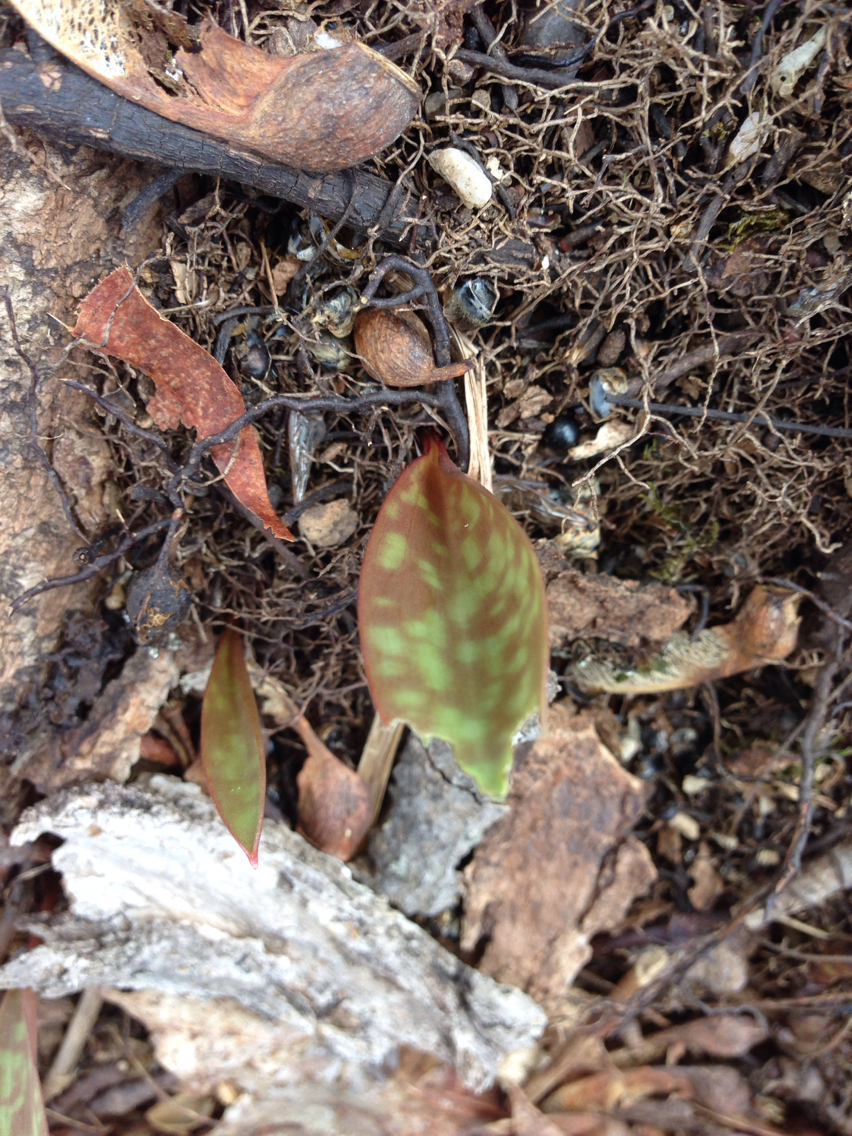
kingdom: Plantae
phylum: Tracheophyta
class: Liliopsida
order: Liliales
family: Liliaceae
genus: Erythronium
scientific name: Erythronium americanum
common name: Yellow adder's-tongue
